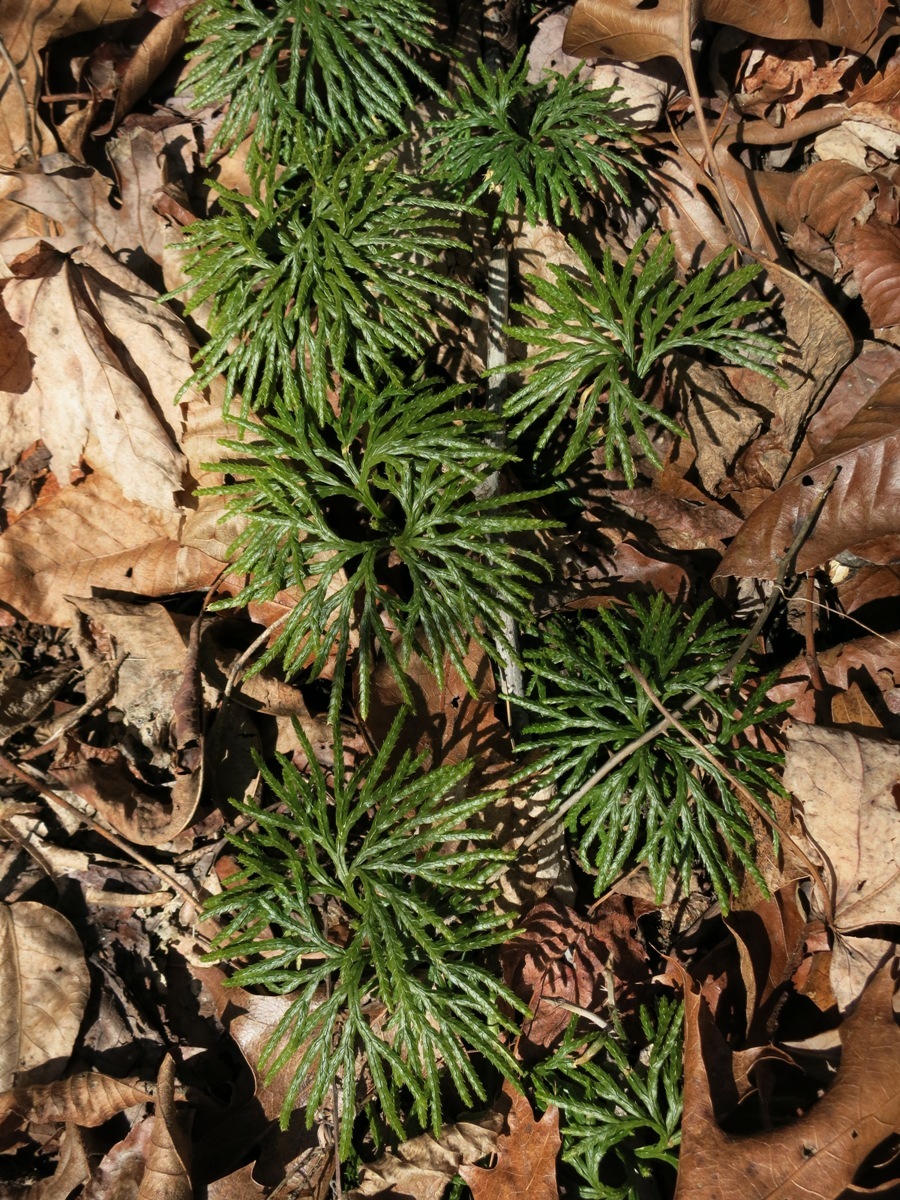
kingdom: Plantae
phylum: Tracheophyta
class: Lycopodiopsida
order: Lycopodiales
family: Lycopodiaceae
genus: Diphasiastrum
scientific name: Diphasiastrum digitatum
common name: Southern running-pine
